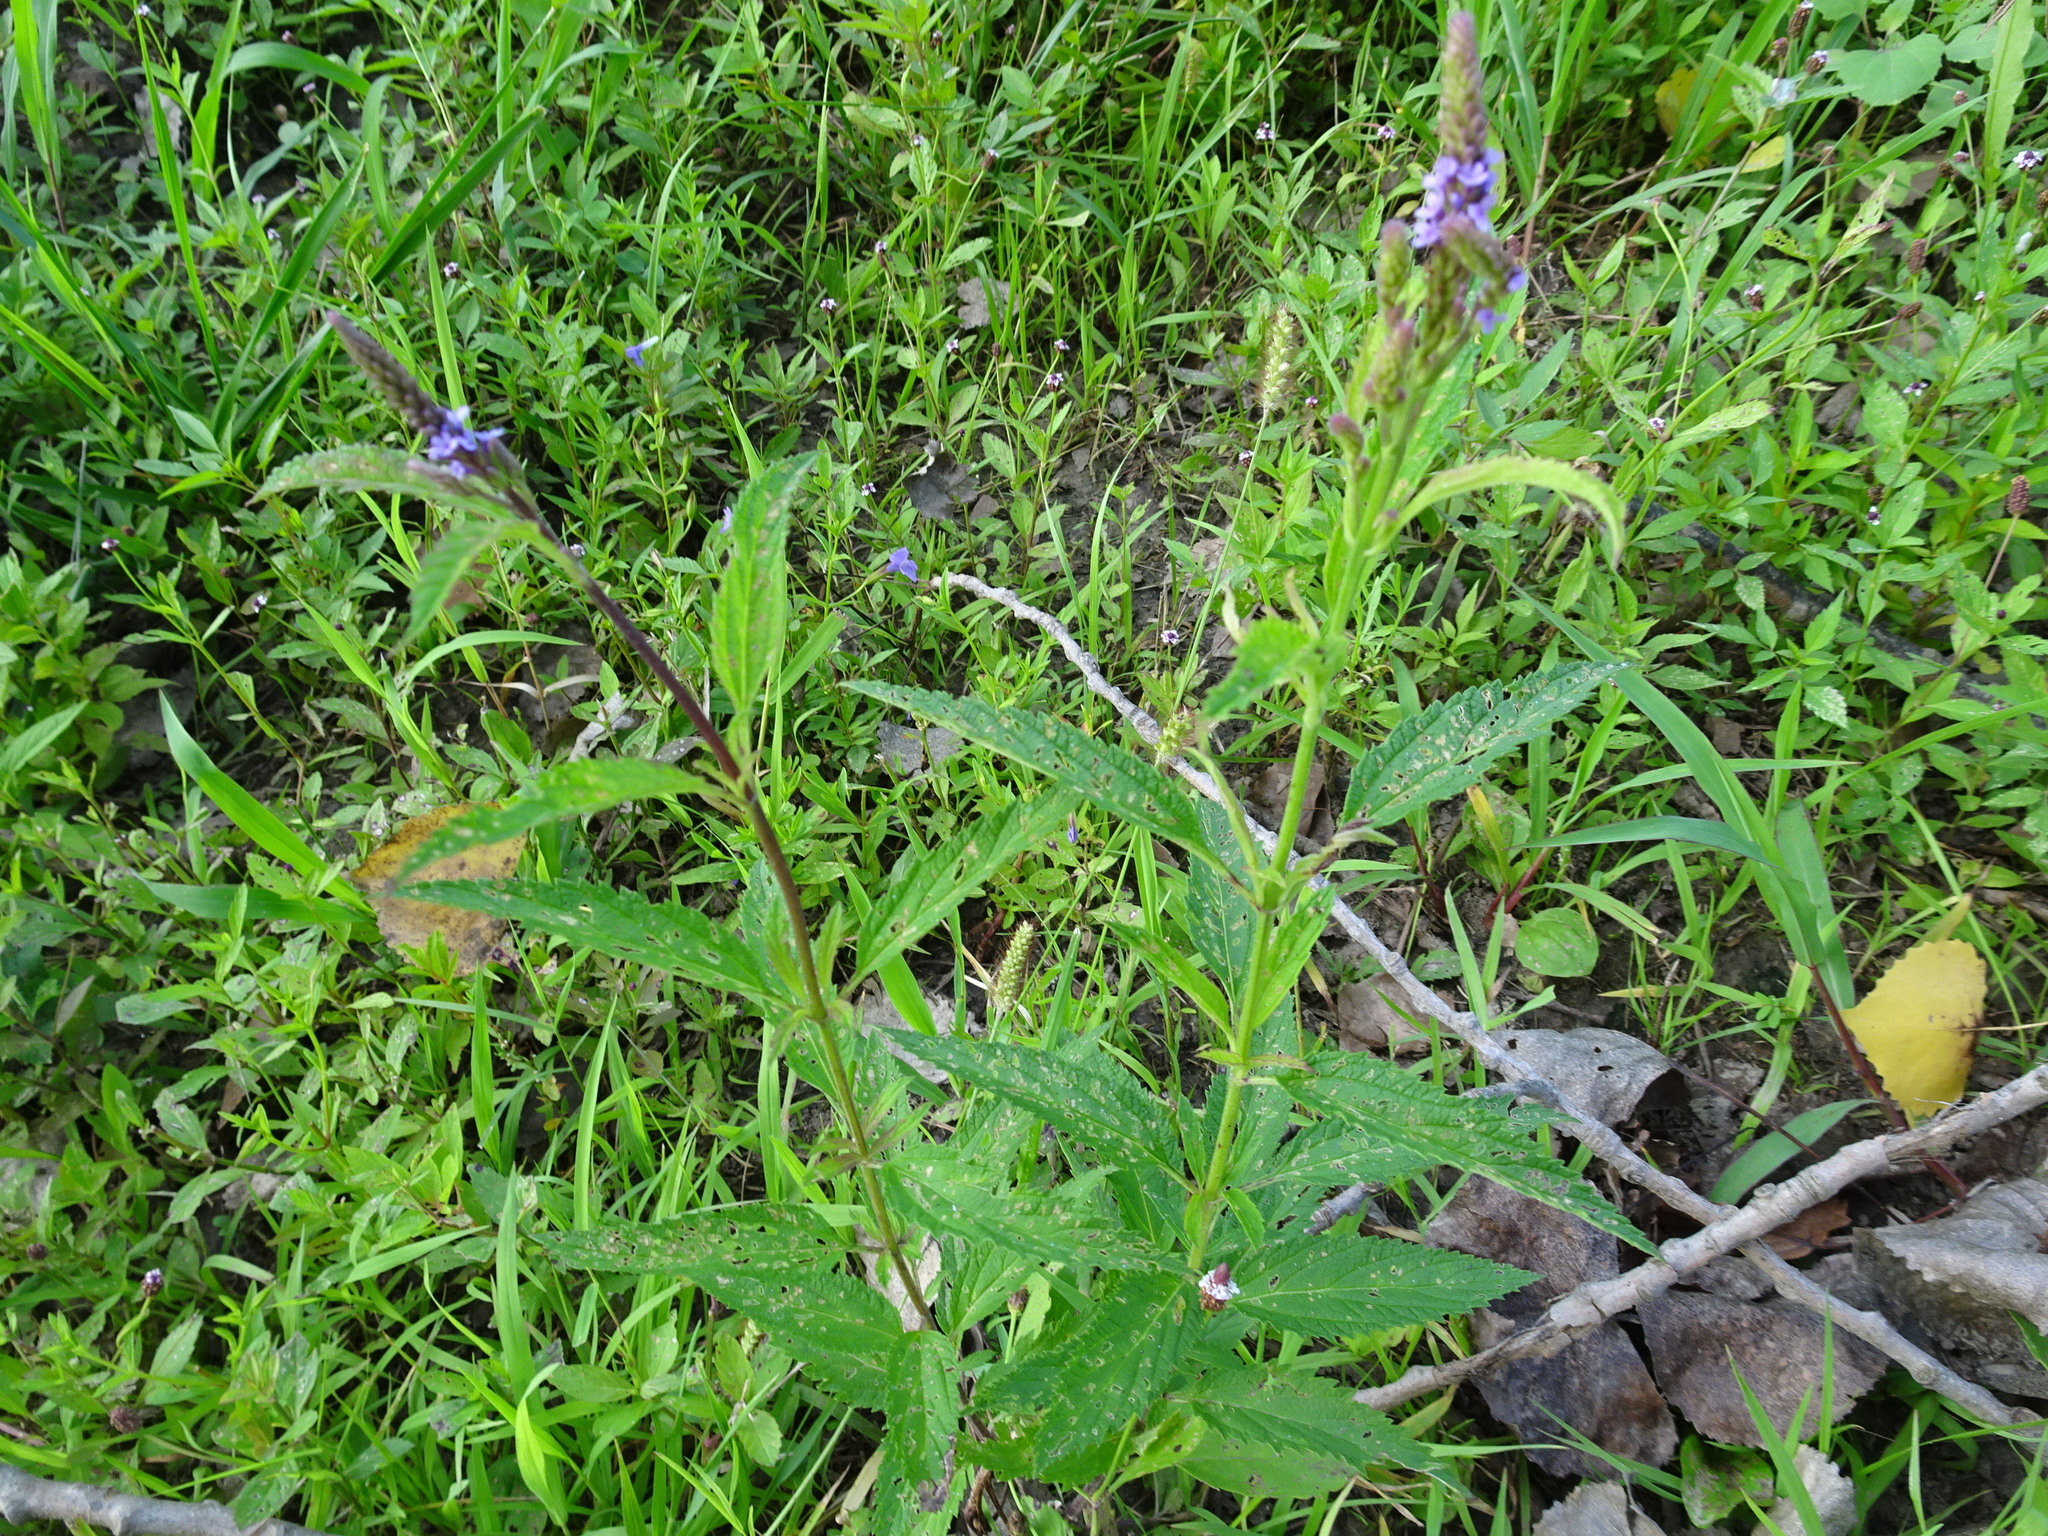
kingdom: Plantae
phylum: Tracheophyta
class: Magnoliopsida
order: Lamiales
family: Verbenaceae
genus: Verbena
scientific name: Verbena hastata
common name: American blue vervain
